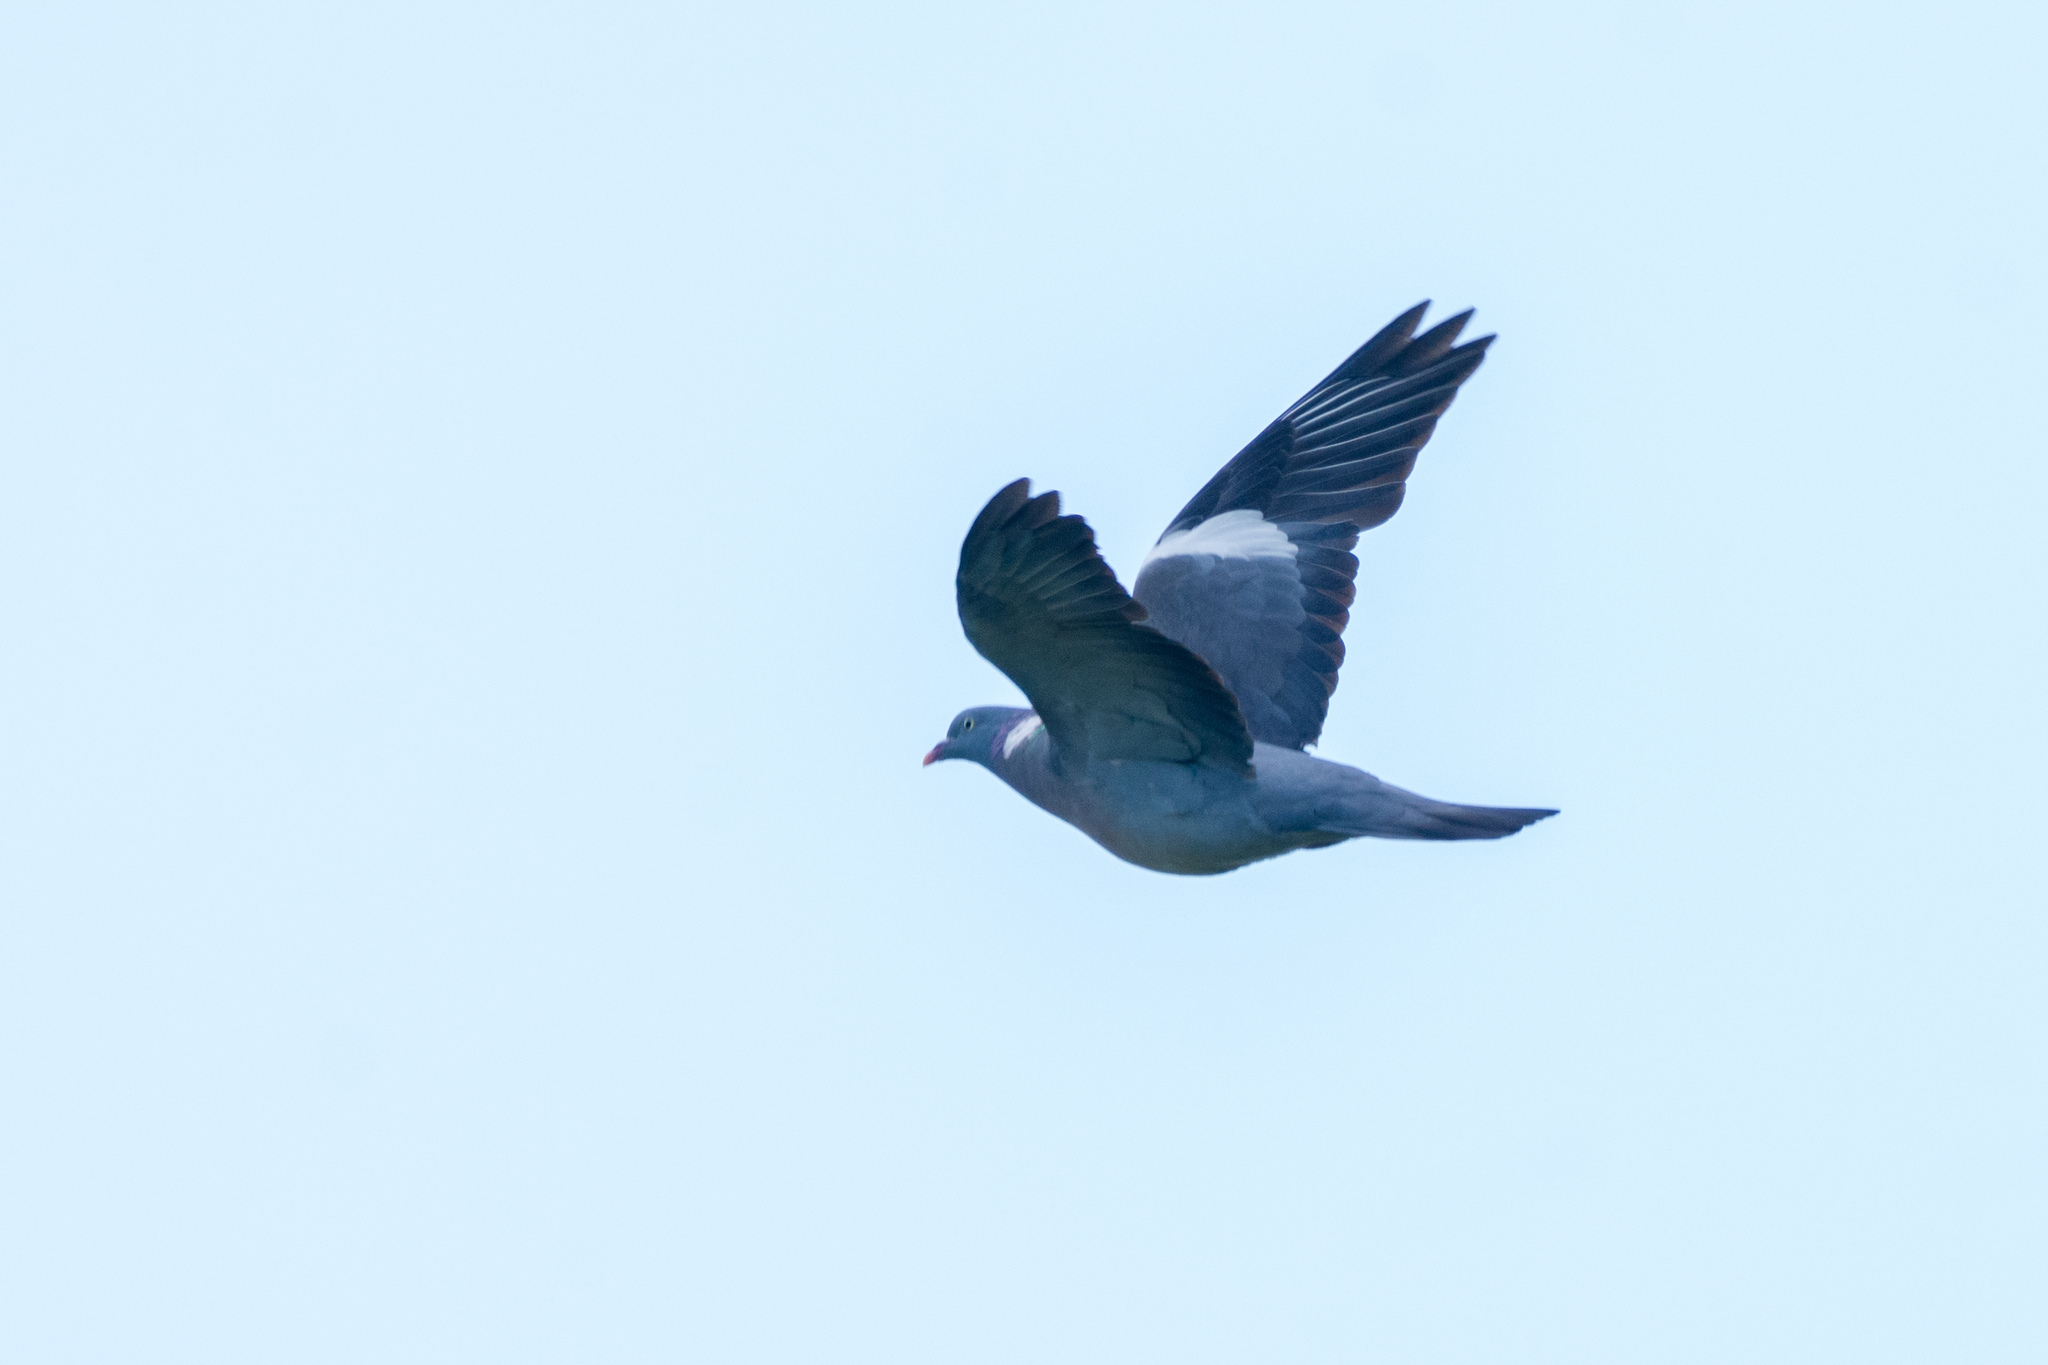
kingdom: Animalia
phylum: Chordata
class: Aves
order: Columbiformes
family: Columbidae
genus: Columba
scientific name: Columba palumbus
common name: Common wood pigeon
